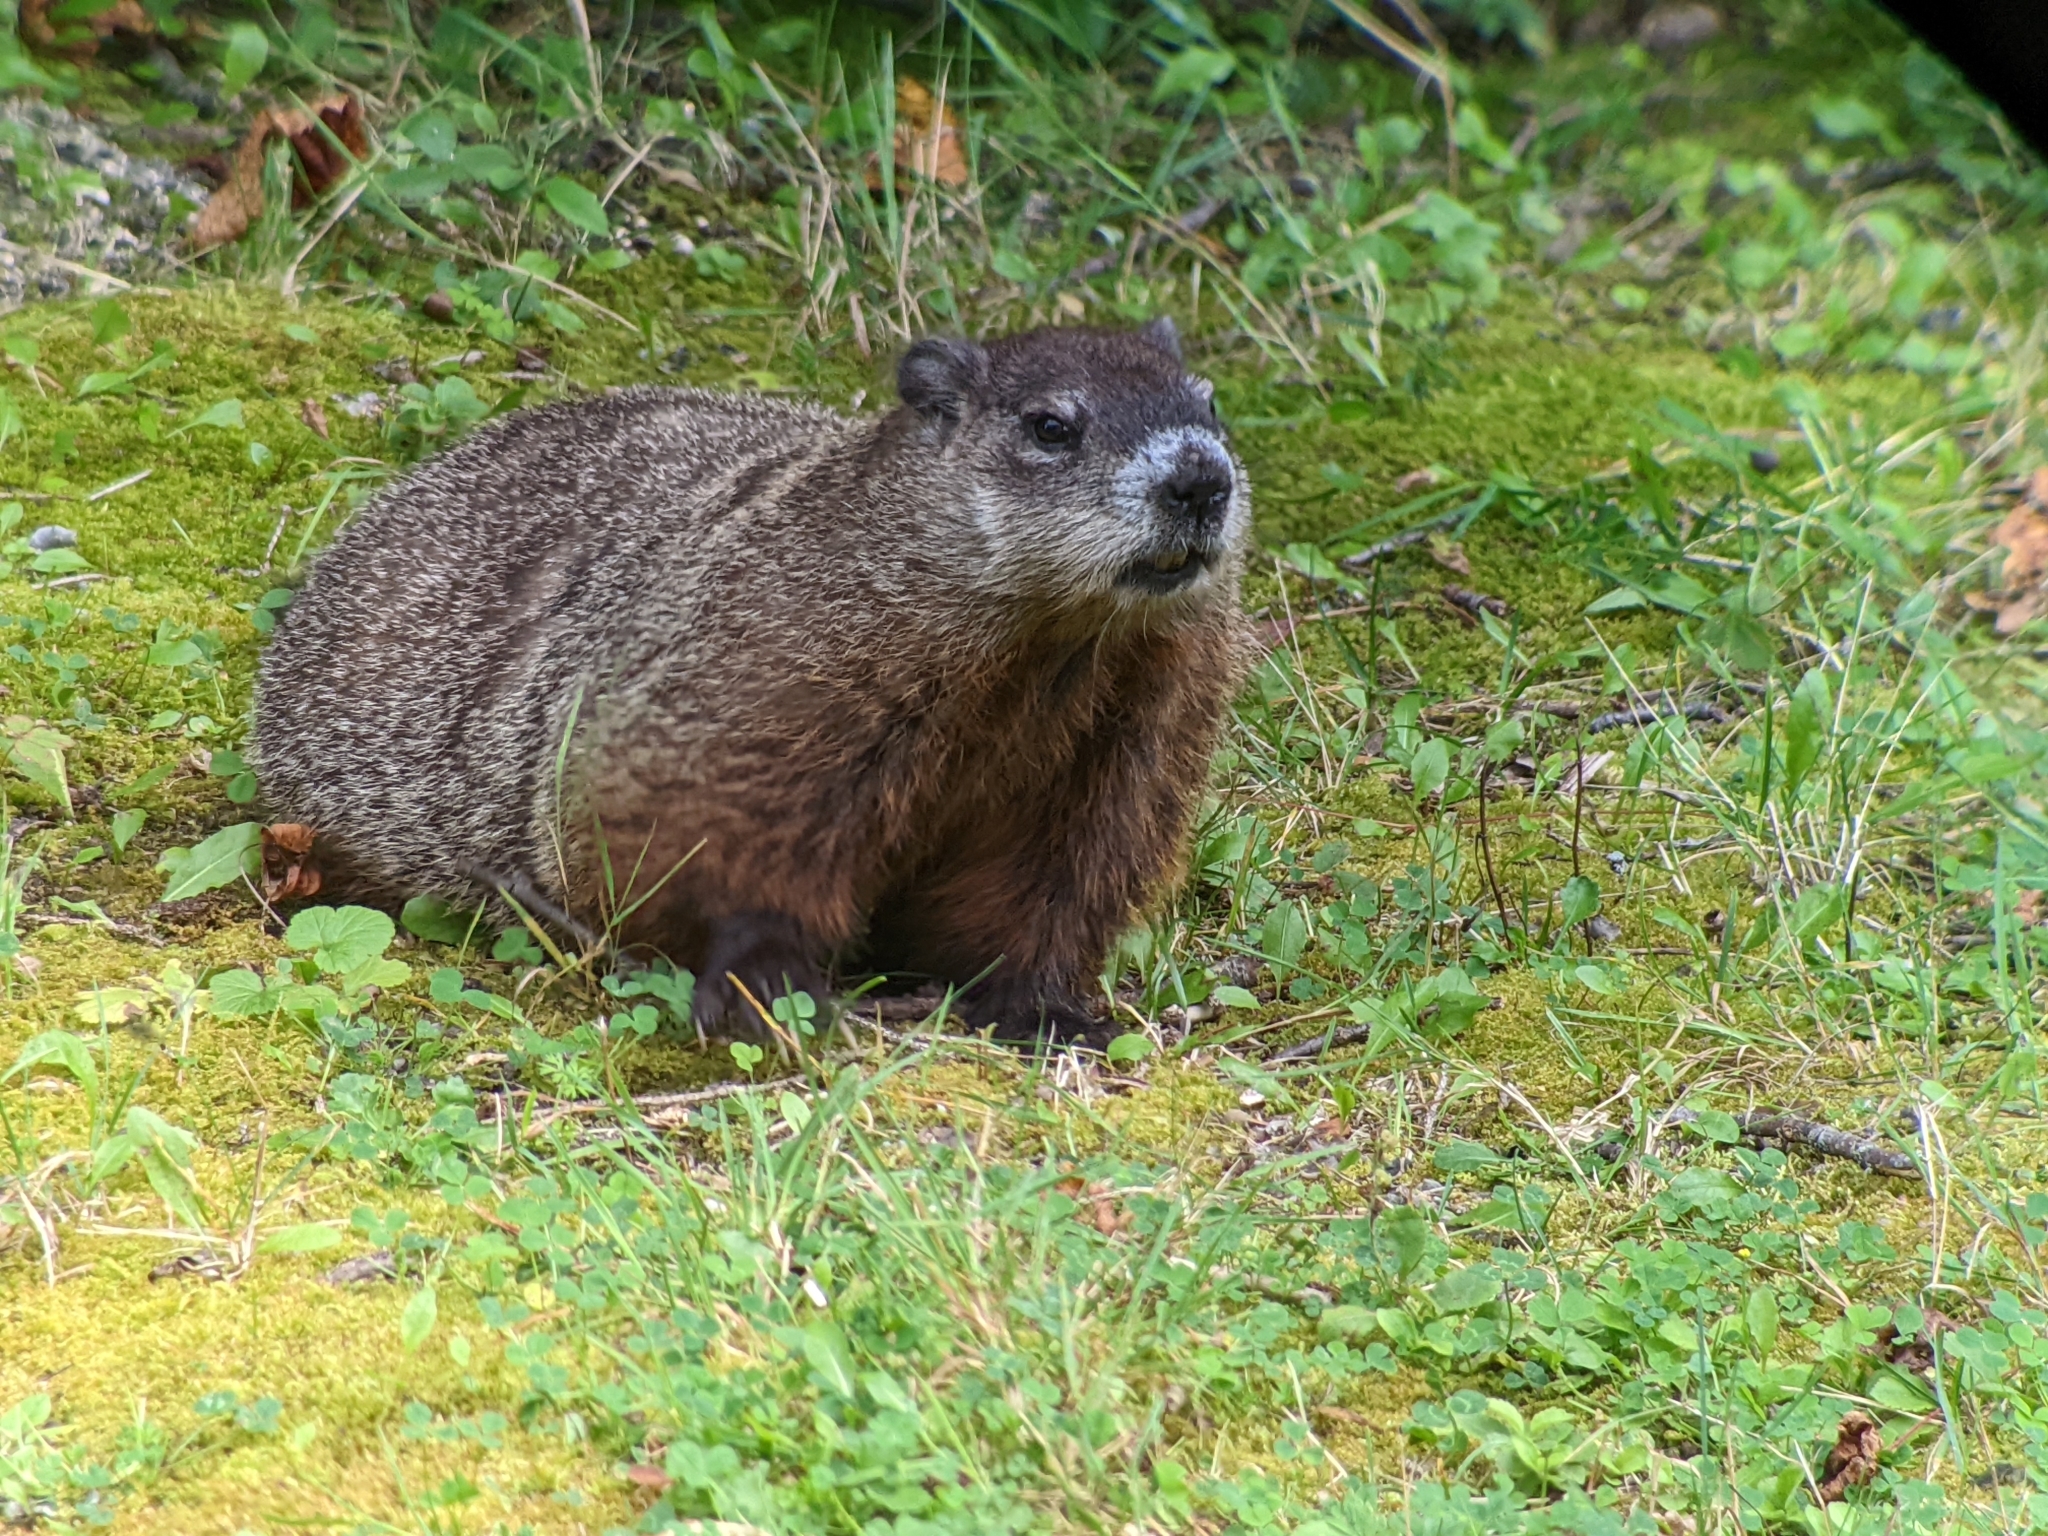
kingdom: Animalia
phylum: Chordata
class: Mammalia
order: Rodentia
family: Sciuridae
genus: Marmota
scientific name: Marmota monax
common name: Groundhog
